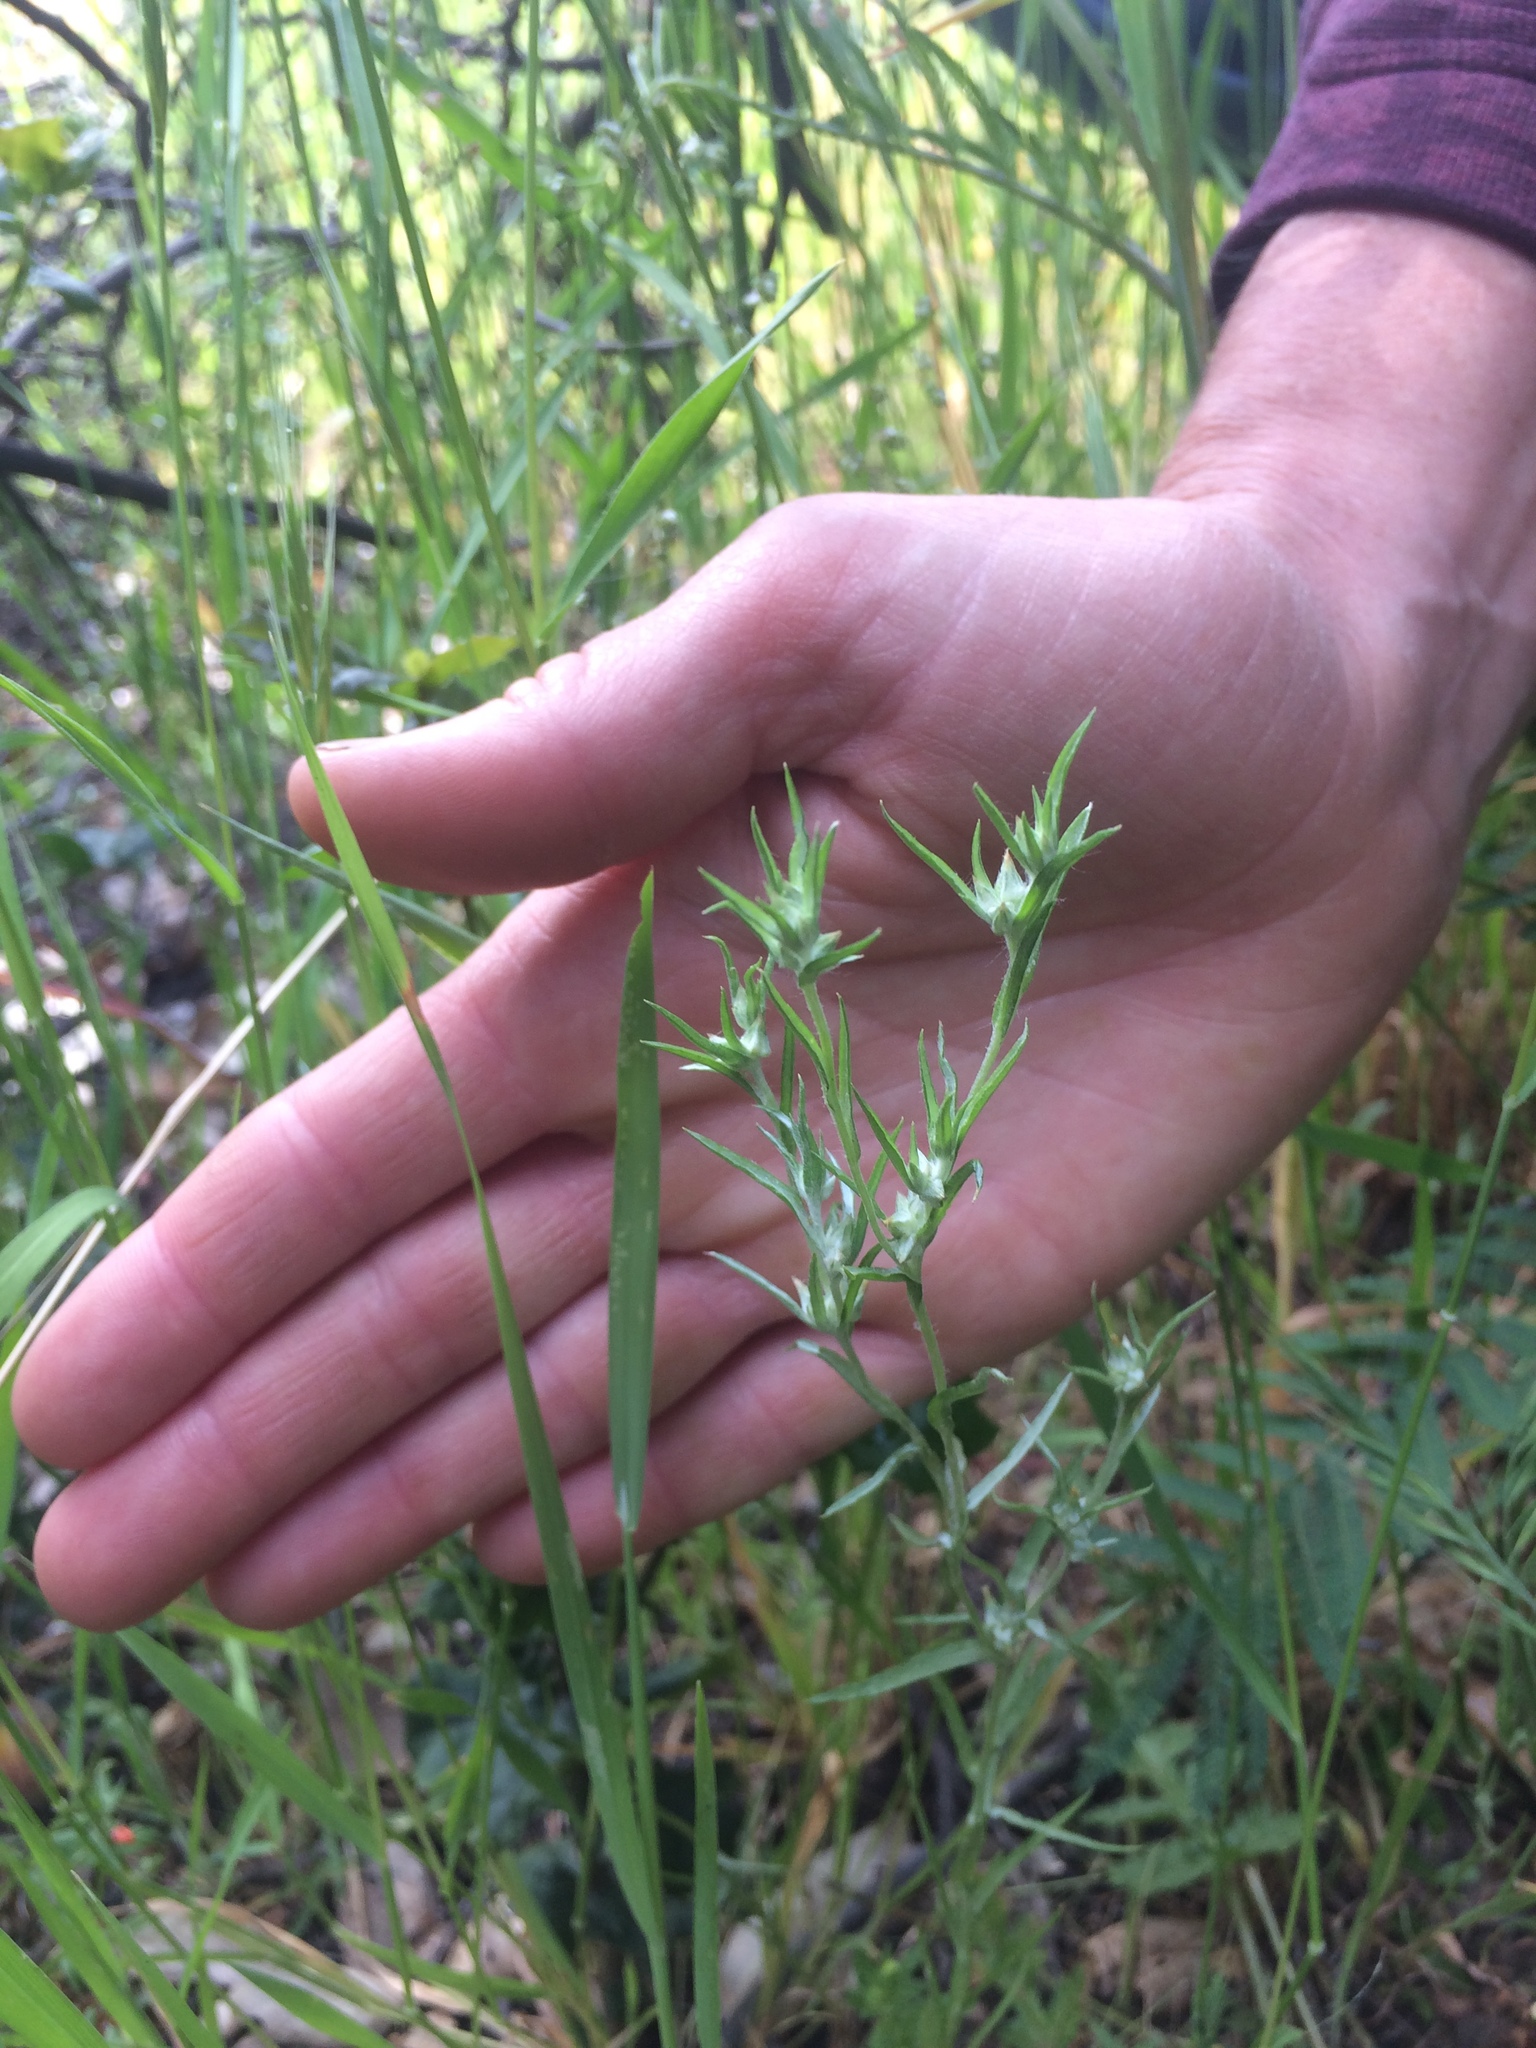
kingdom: Plantae
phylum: Tracheophyta
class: Magnoliopsida
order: Asterales
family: Asteraceae
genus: Logfia
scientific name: Logfia gallica
